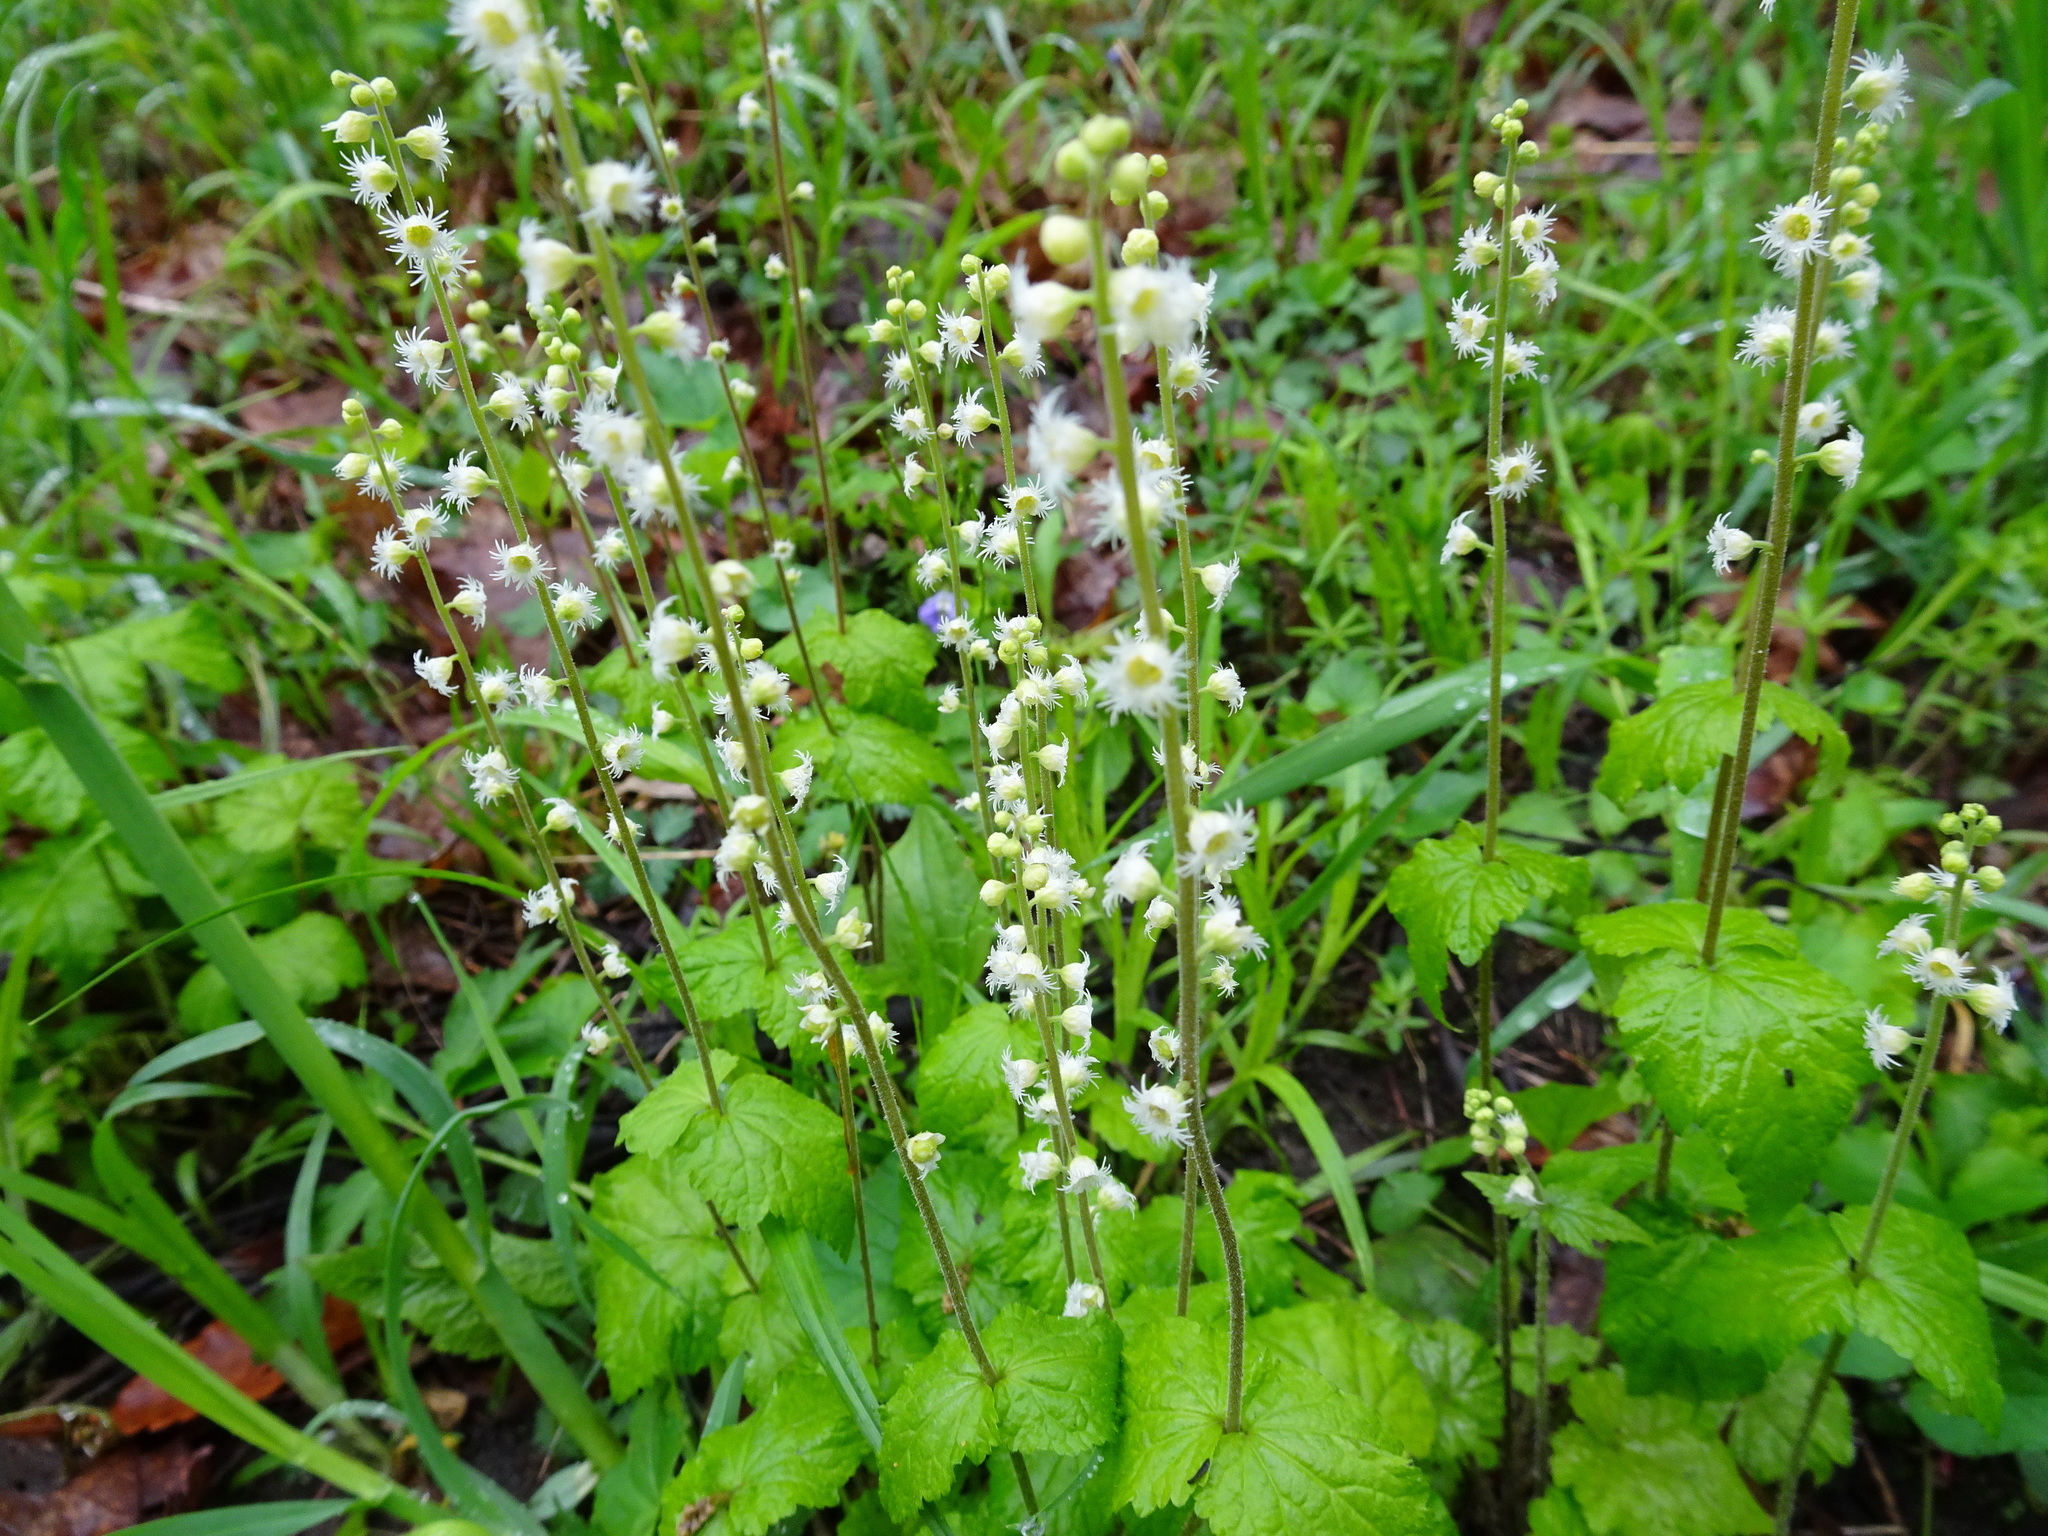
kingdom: Plantae
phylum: Tracheophyta
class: Magnoliopsida
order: Saxifragales
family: Saxifragaceae
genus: Mitella
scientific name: Mitella diphylla
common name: Coolwort
